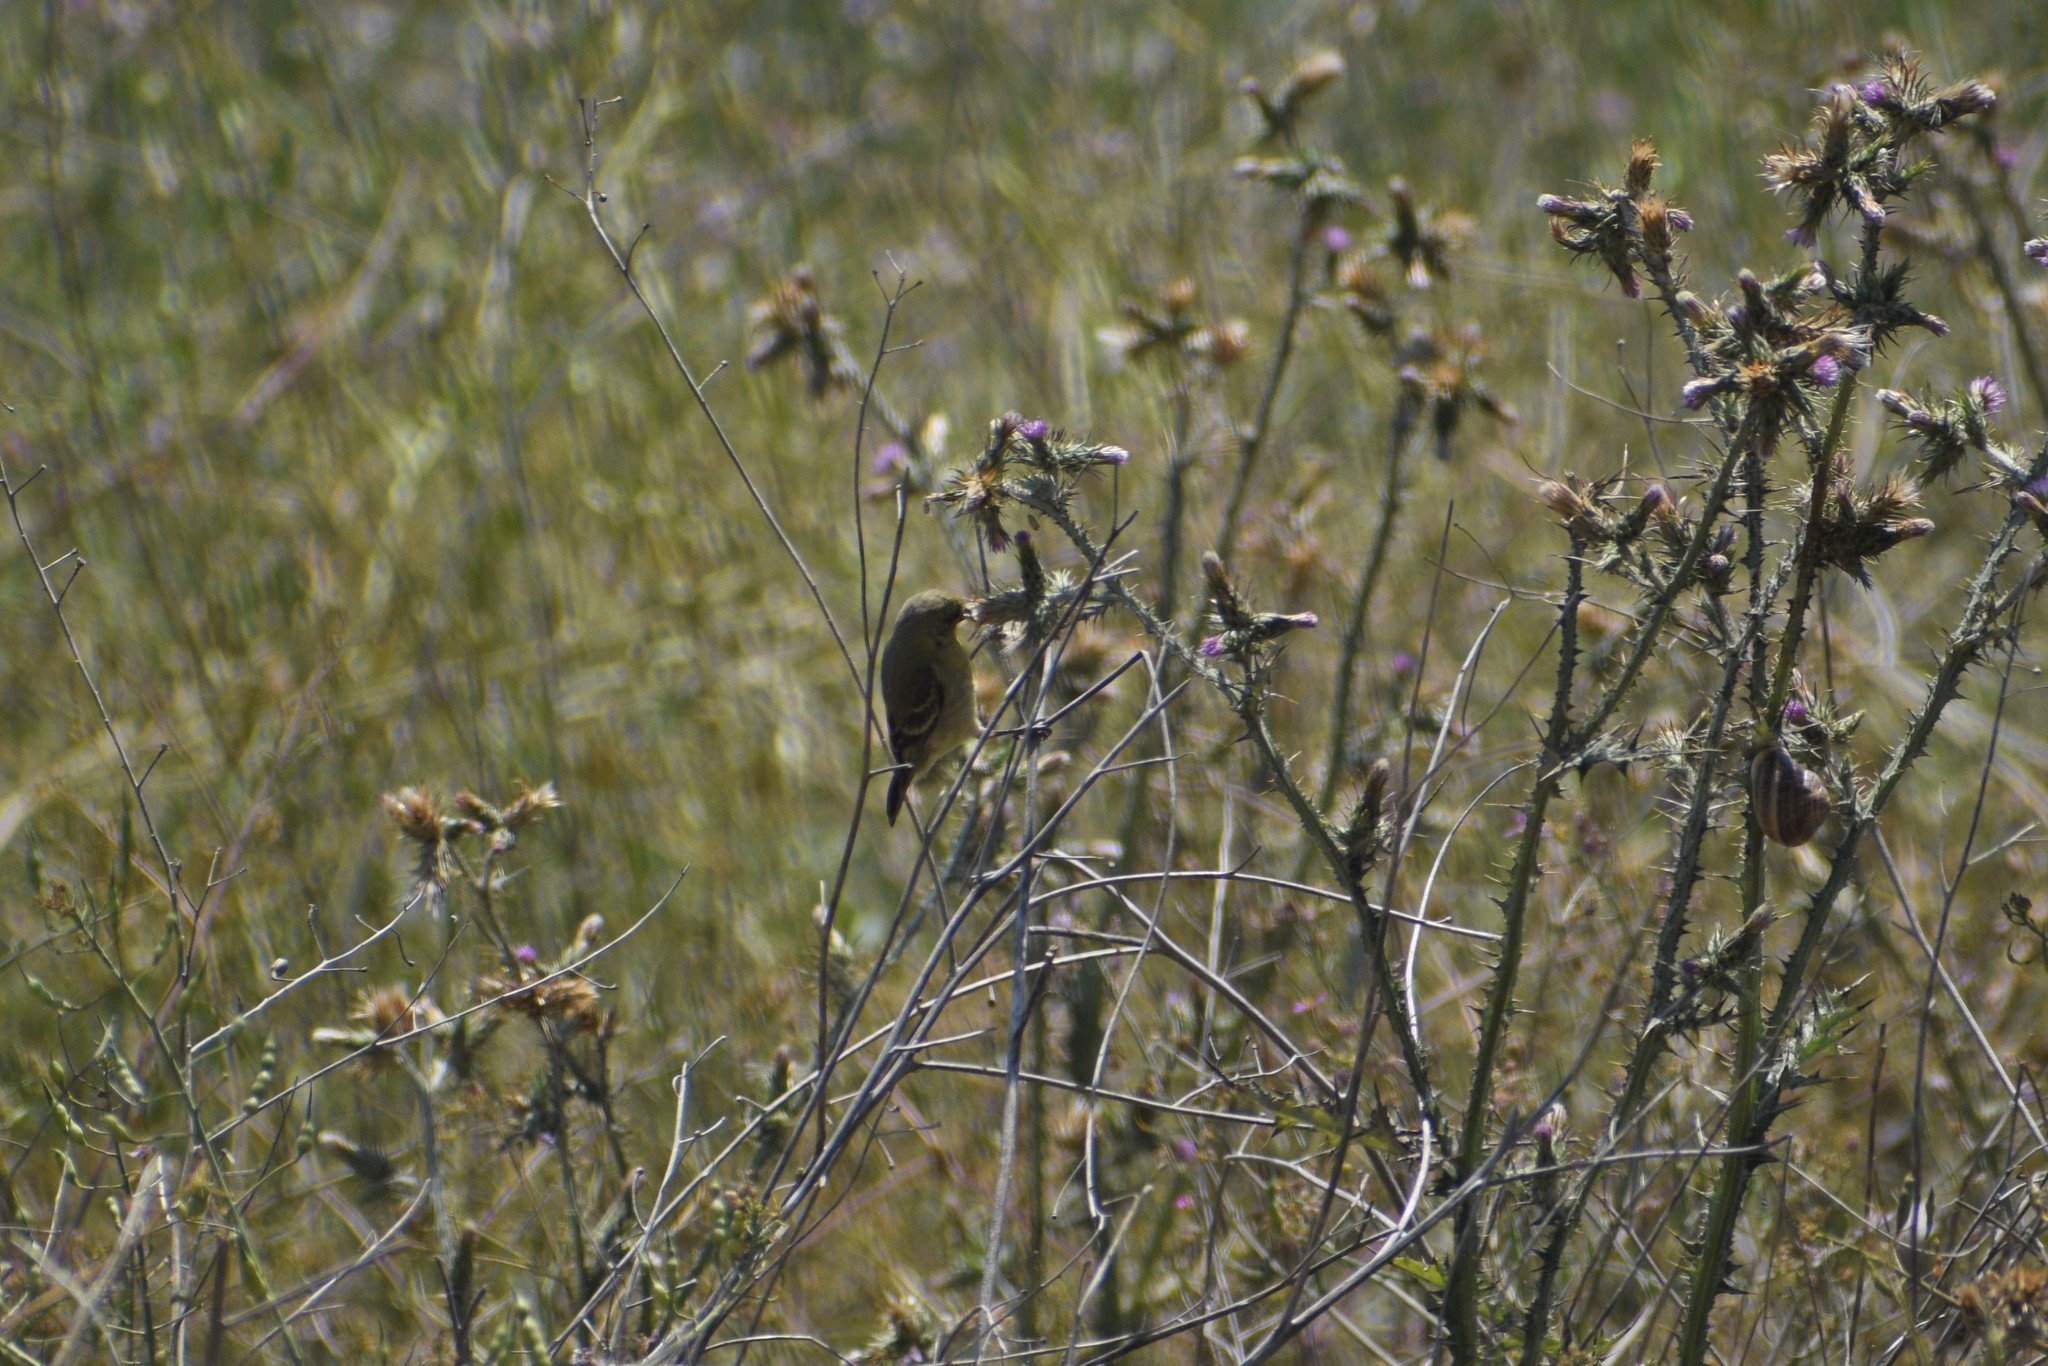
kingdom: Animalia
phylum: Chordata
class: Aves
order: Passeriformes
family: Fringillidae
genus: Spinus
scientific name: Spinus psaltria
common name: Lesser goldfinch
